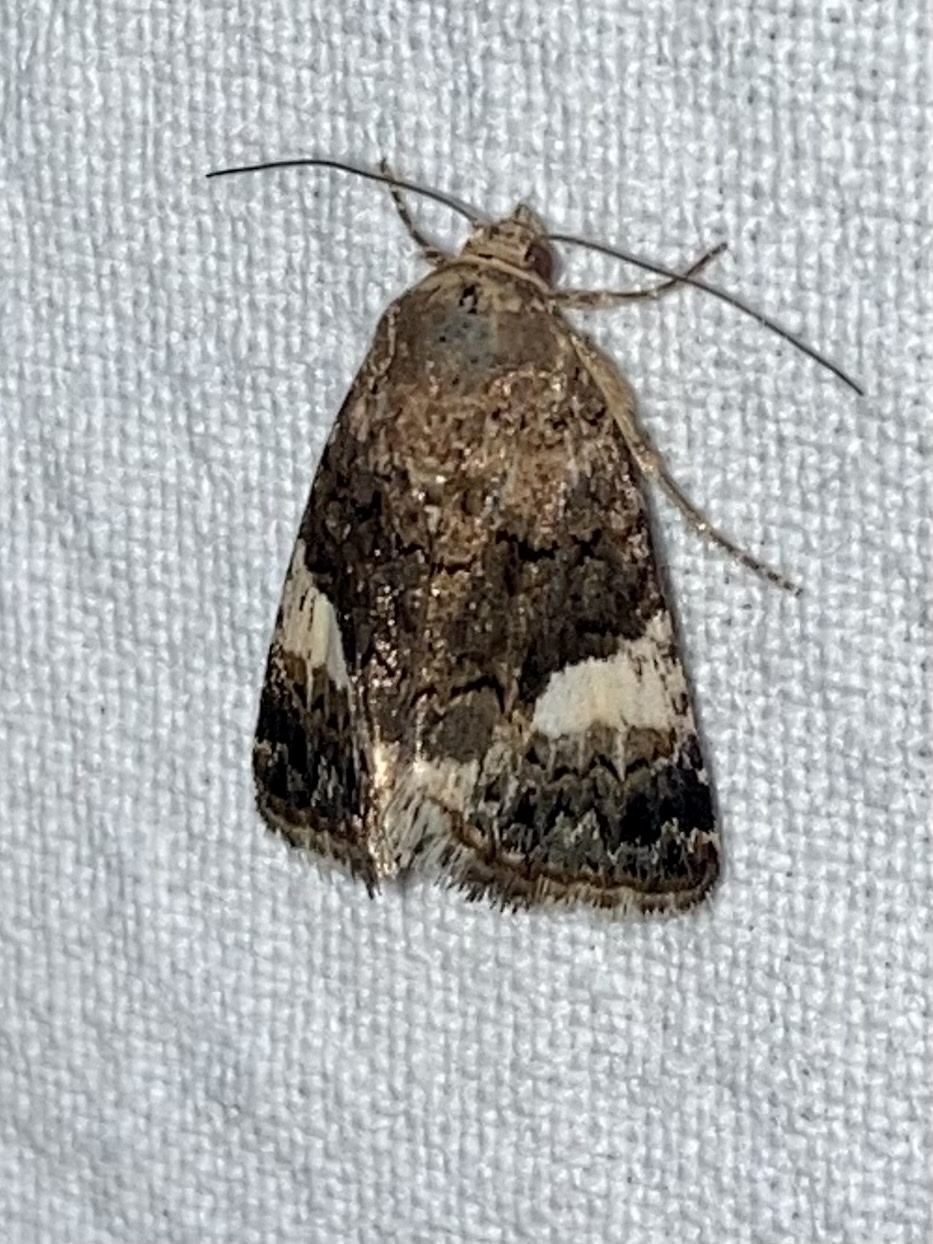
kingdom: Animalia
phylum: Arthropoda
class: Insecta
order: Lepidoptera
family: Erebidae
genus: Tyta
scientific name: Tyta luctuosa
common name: Four-spotted
